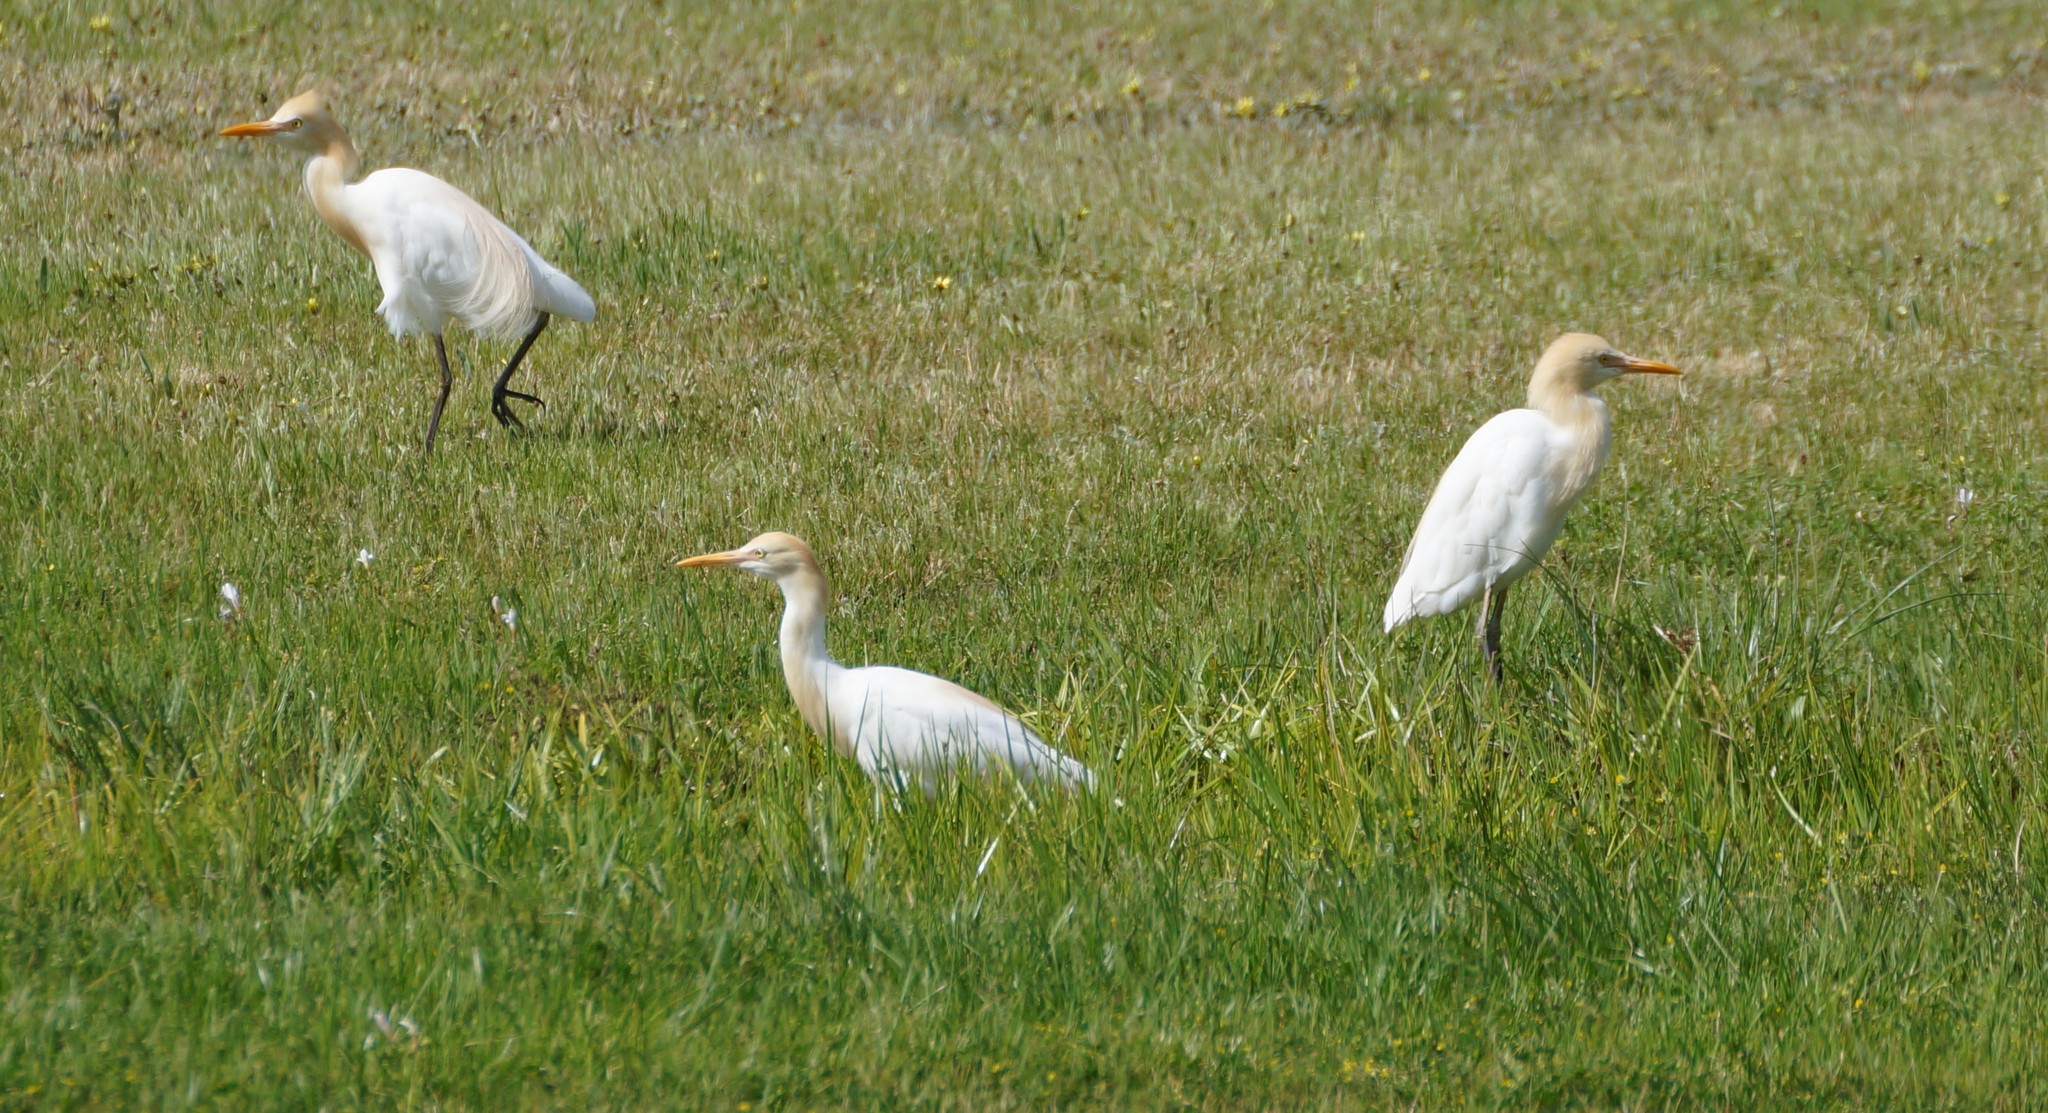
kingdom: Animalia
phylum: Chordata
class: Aves
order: Pelecaniformes
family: Ardeidae
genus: Bubulcus
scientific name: Bubulcus coromandus
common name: Eastern cattle egret
